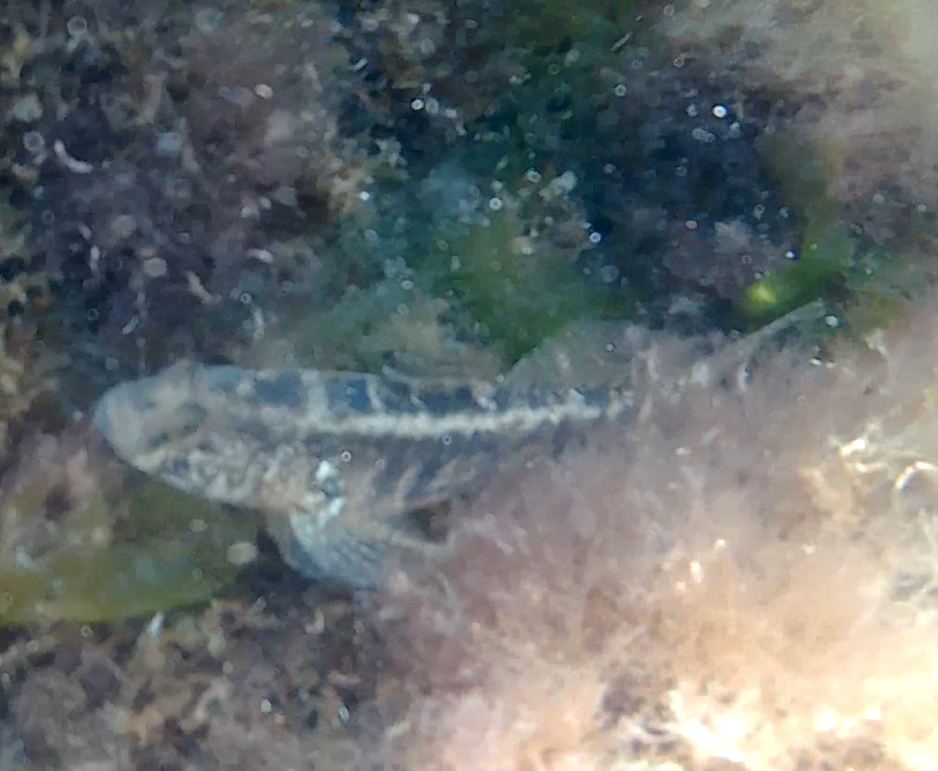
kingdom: Animalia
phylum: Chordata
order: Perciformes
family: Gobiidae
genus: Zosterisessor
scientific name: Zosterisessor ophiocephalus
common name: Grass goby
